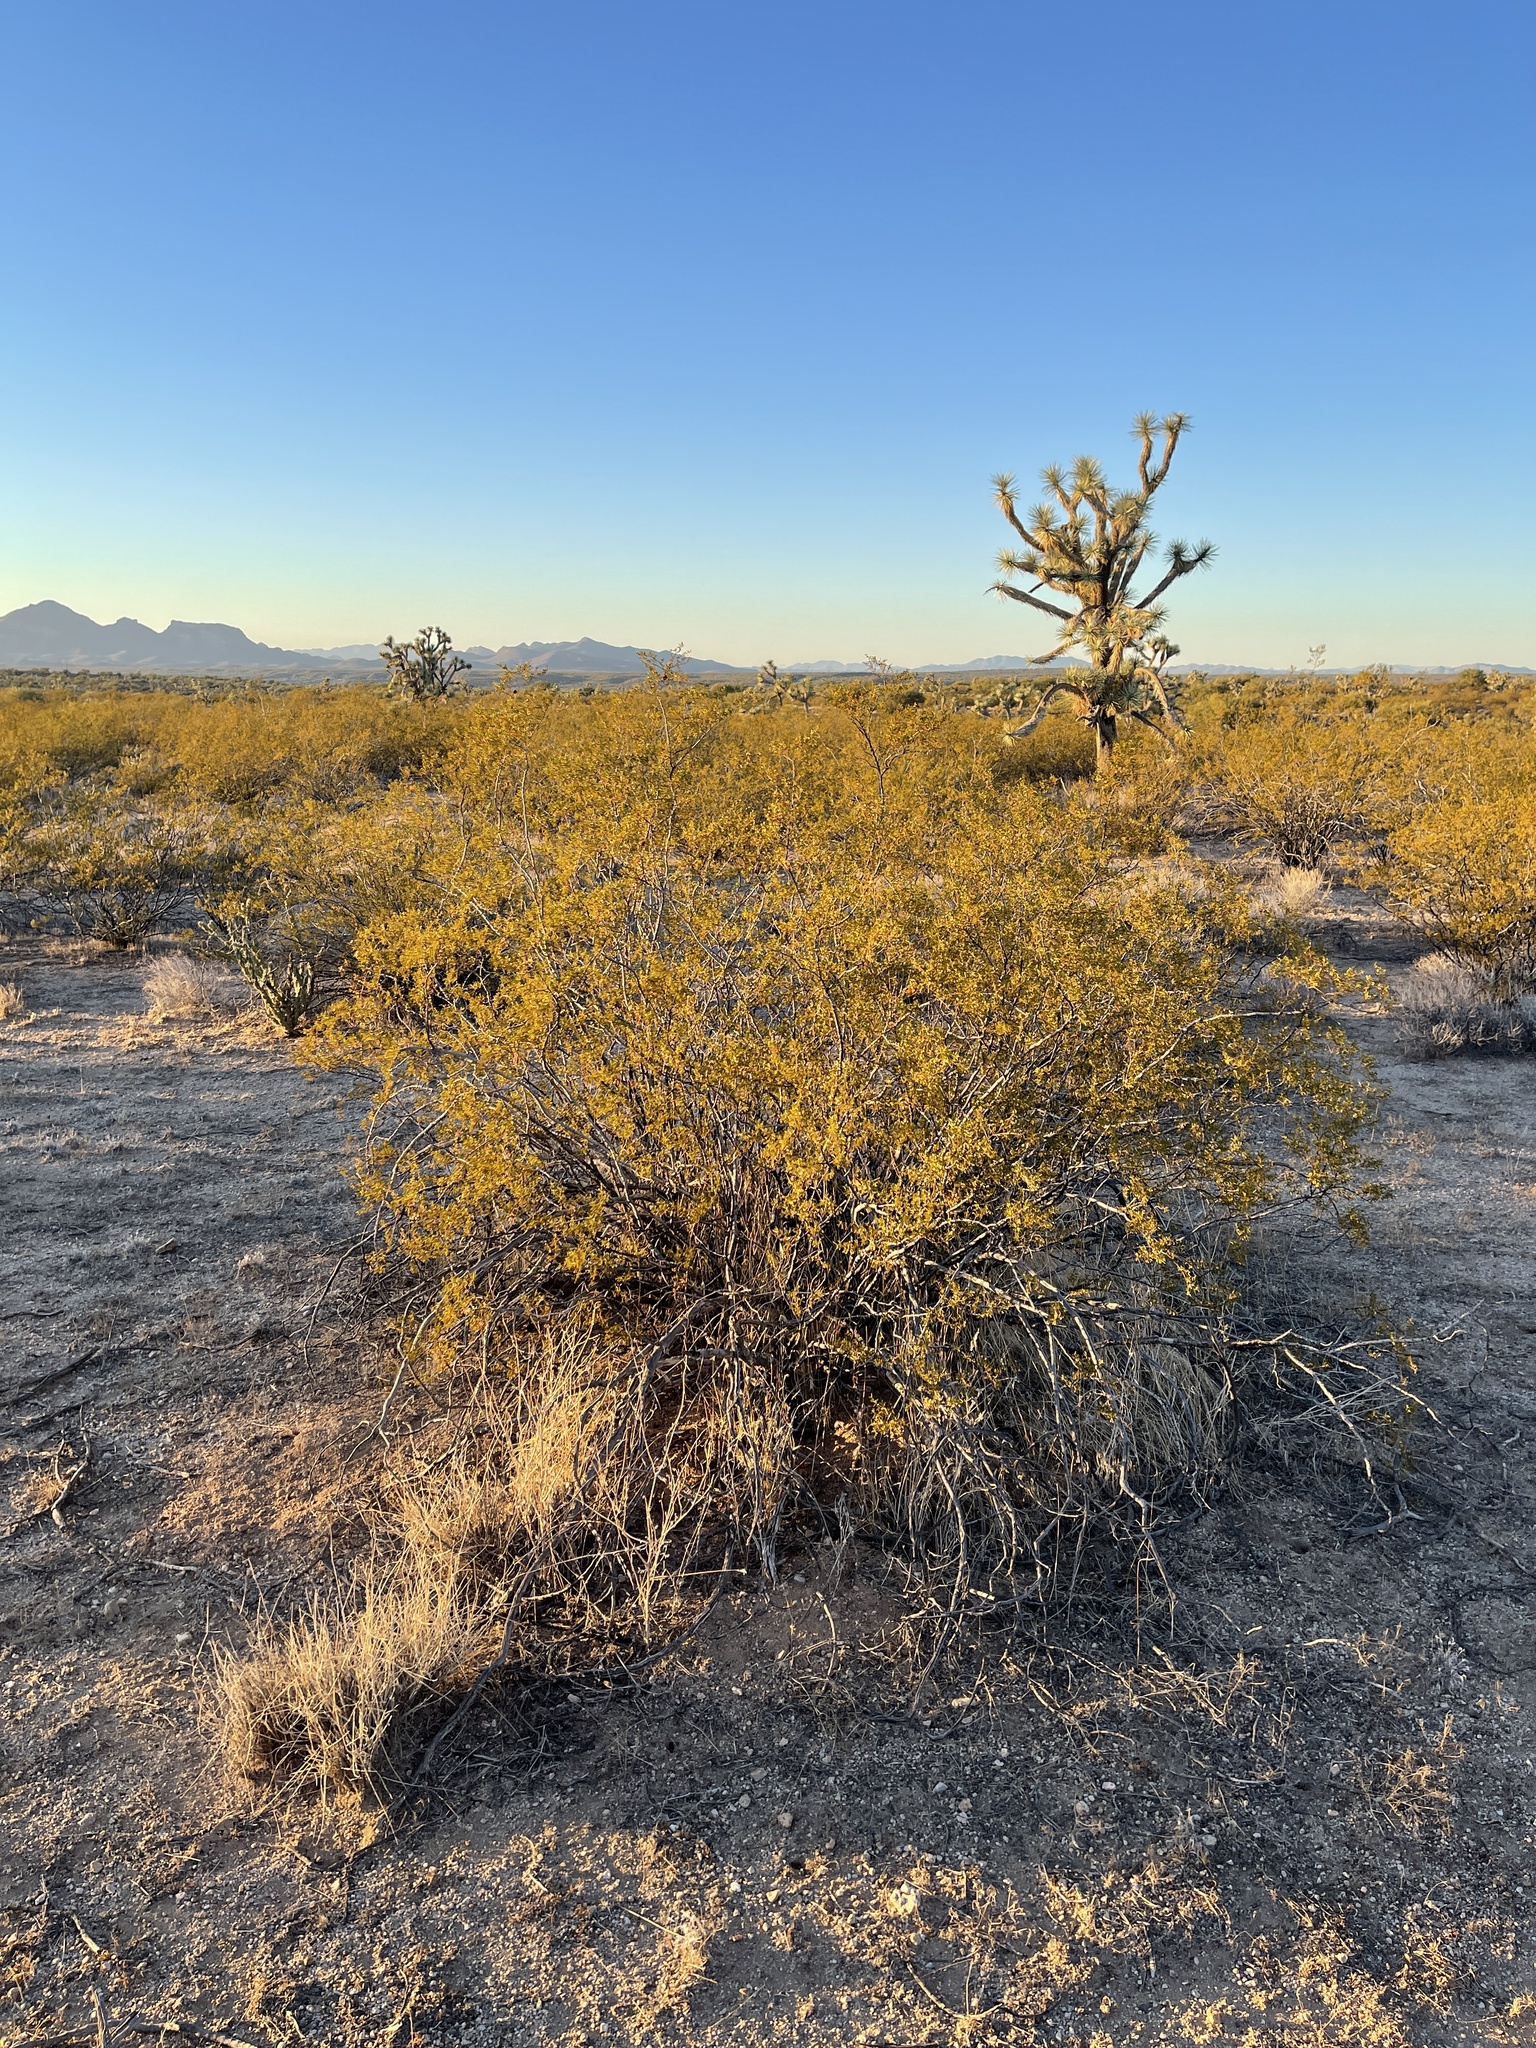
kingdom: Plantae
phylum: Tracheophyta
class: Magnoliopsida
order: Zygophyllales
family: Zygophyllaceae
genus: Larrea
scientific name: Larrea tridentata
